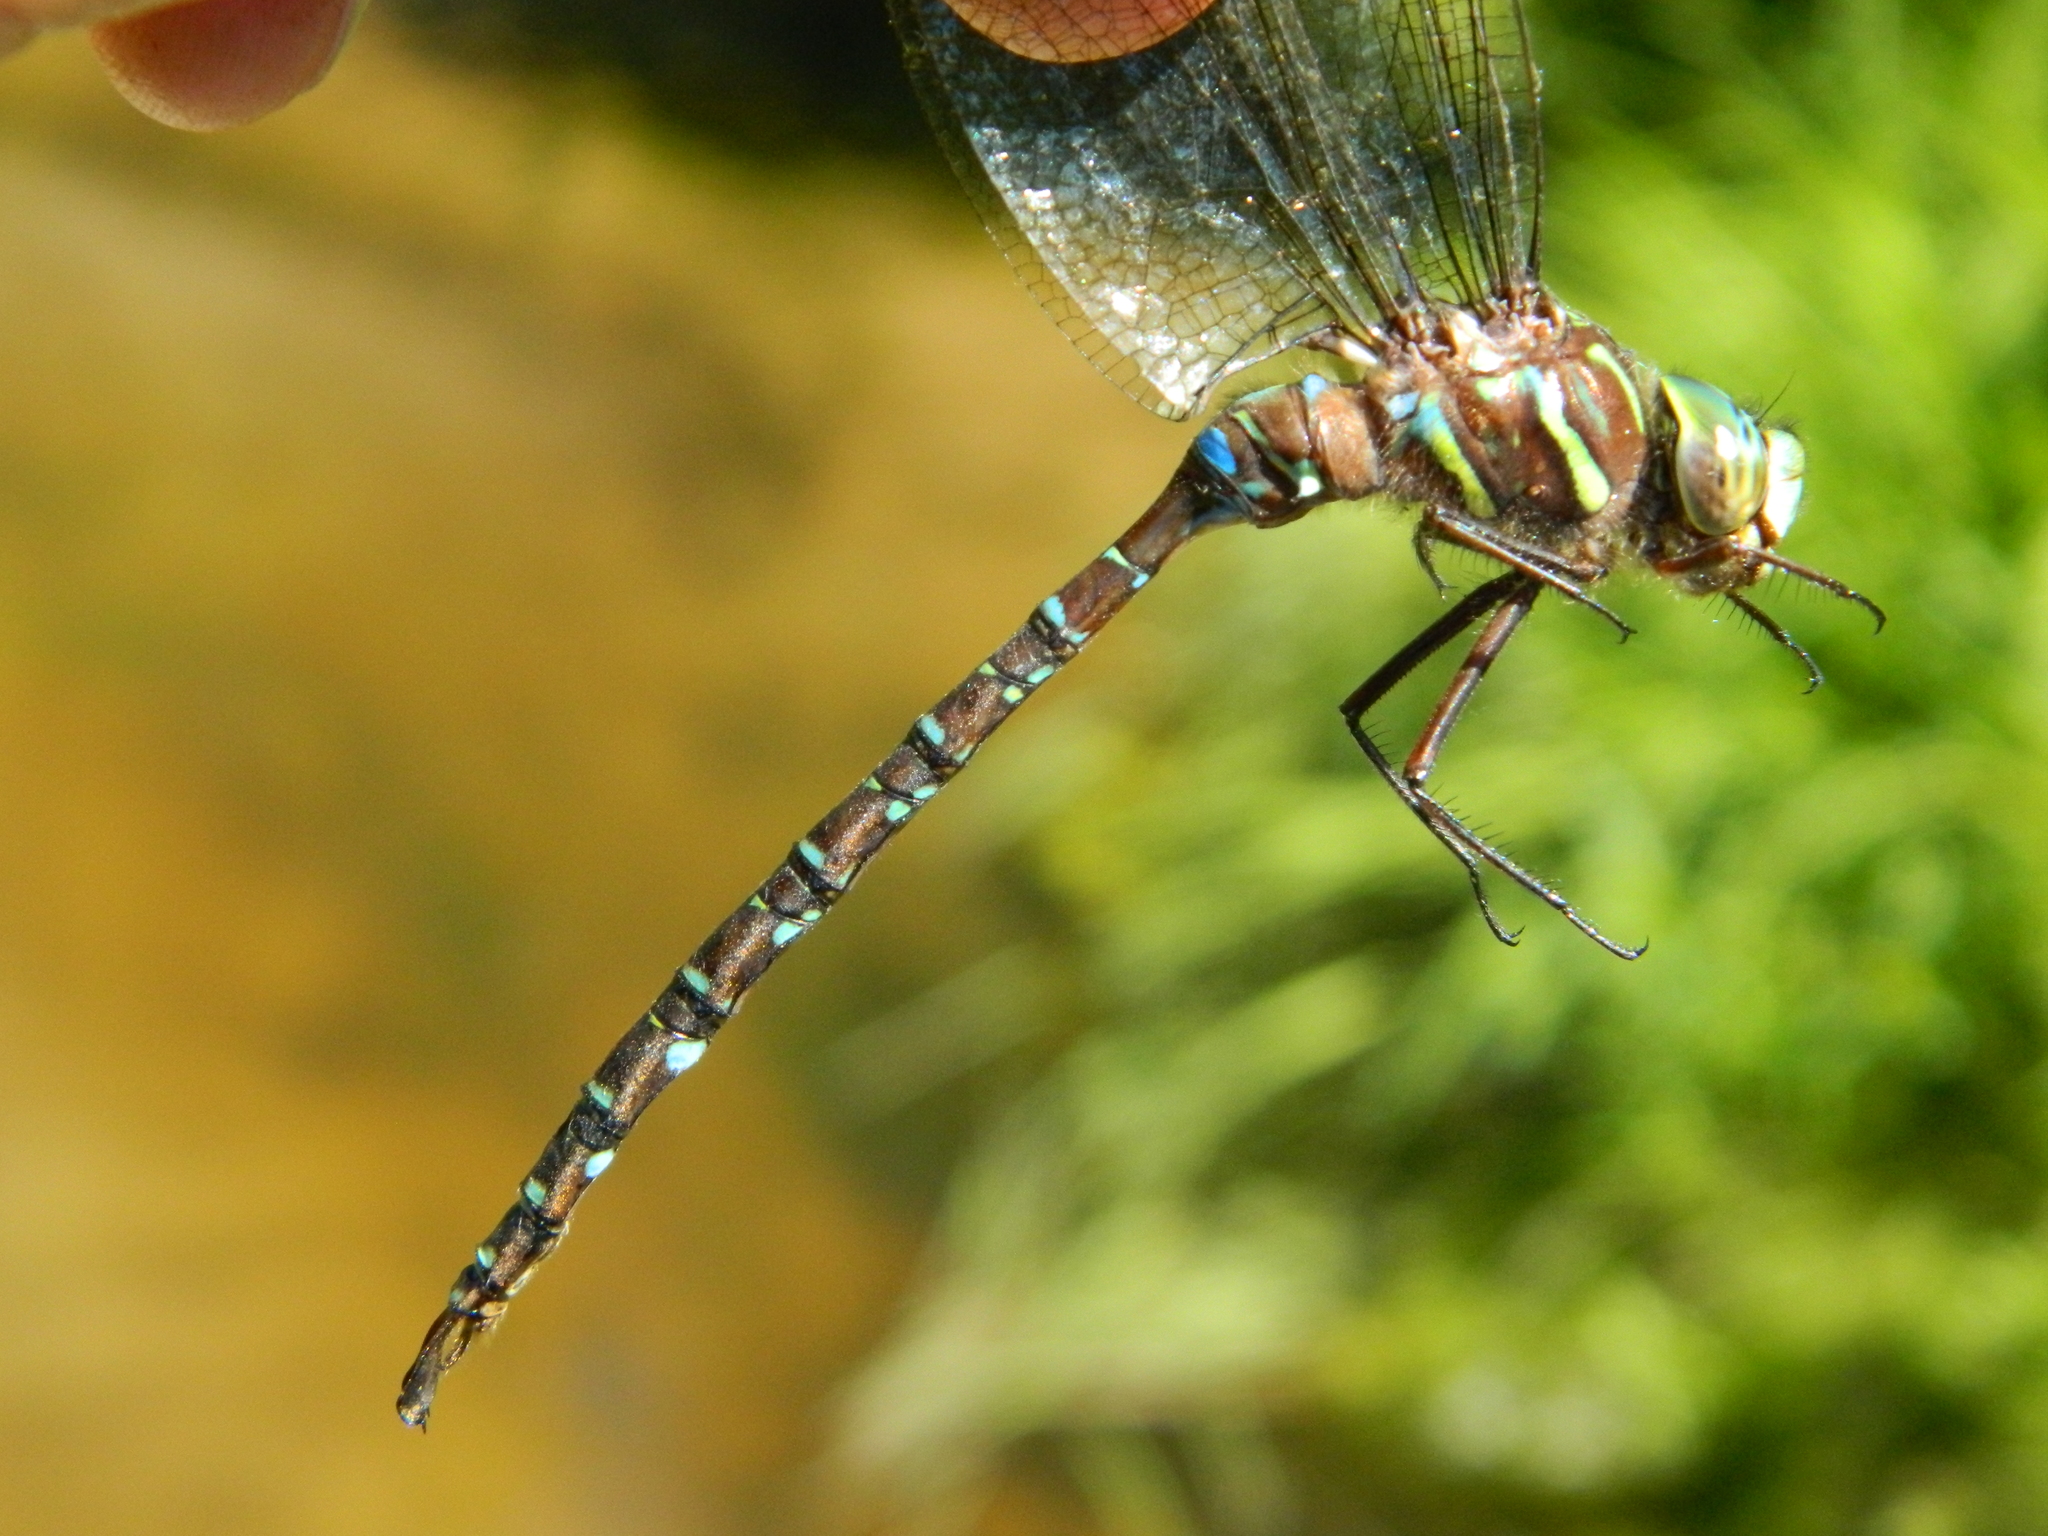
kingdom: Animalia
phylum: Arthropoda
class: Insecta
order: Odonata
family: Aeshnidae
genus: Aeshna
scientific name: Aeshna umbrosa
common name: Shadow darner
